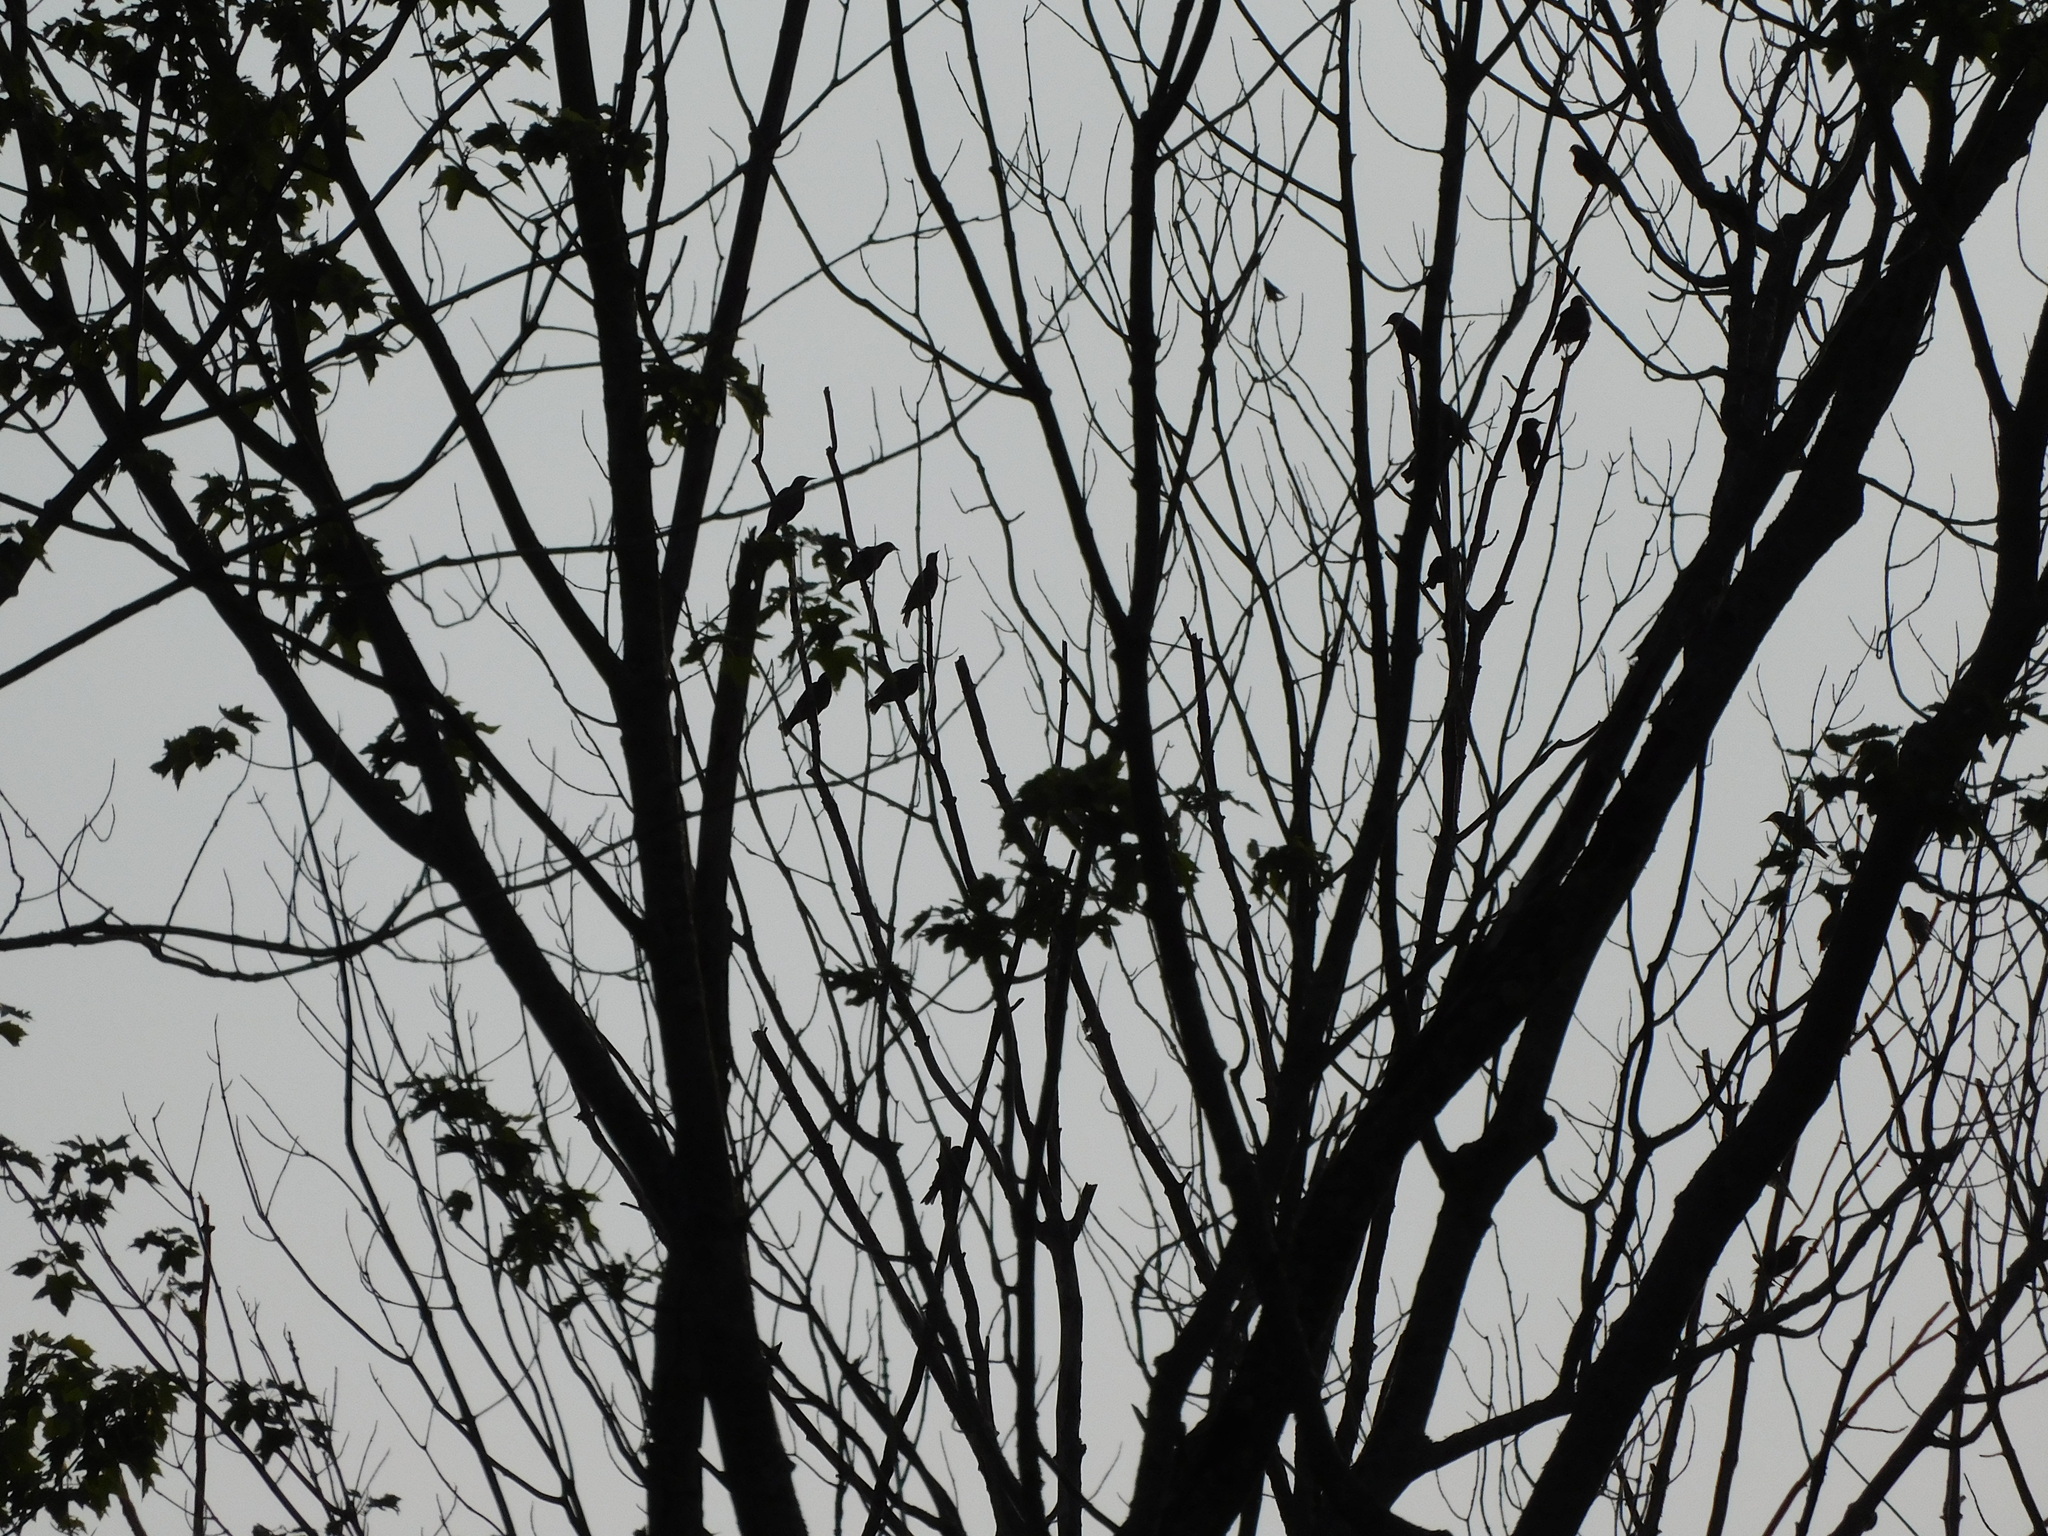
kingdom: Animalia
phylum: Chordata
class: Aves
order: Passeriformes
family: Sturnidae
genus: Sturnus
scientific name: Sturnus vulgaris
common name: Common starling
